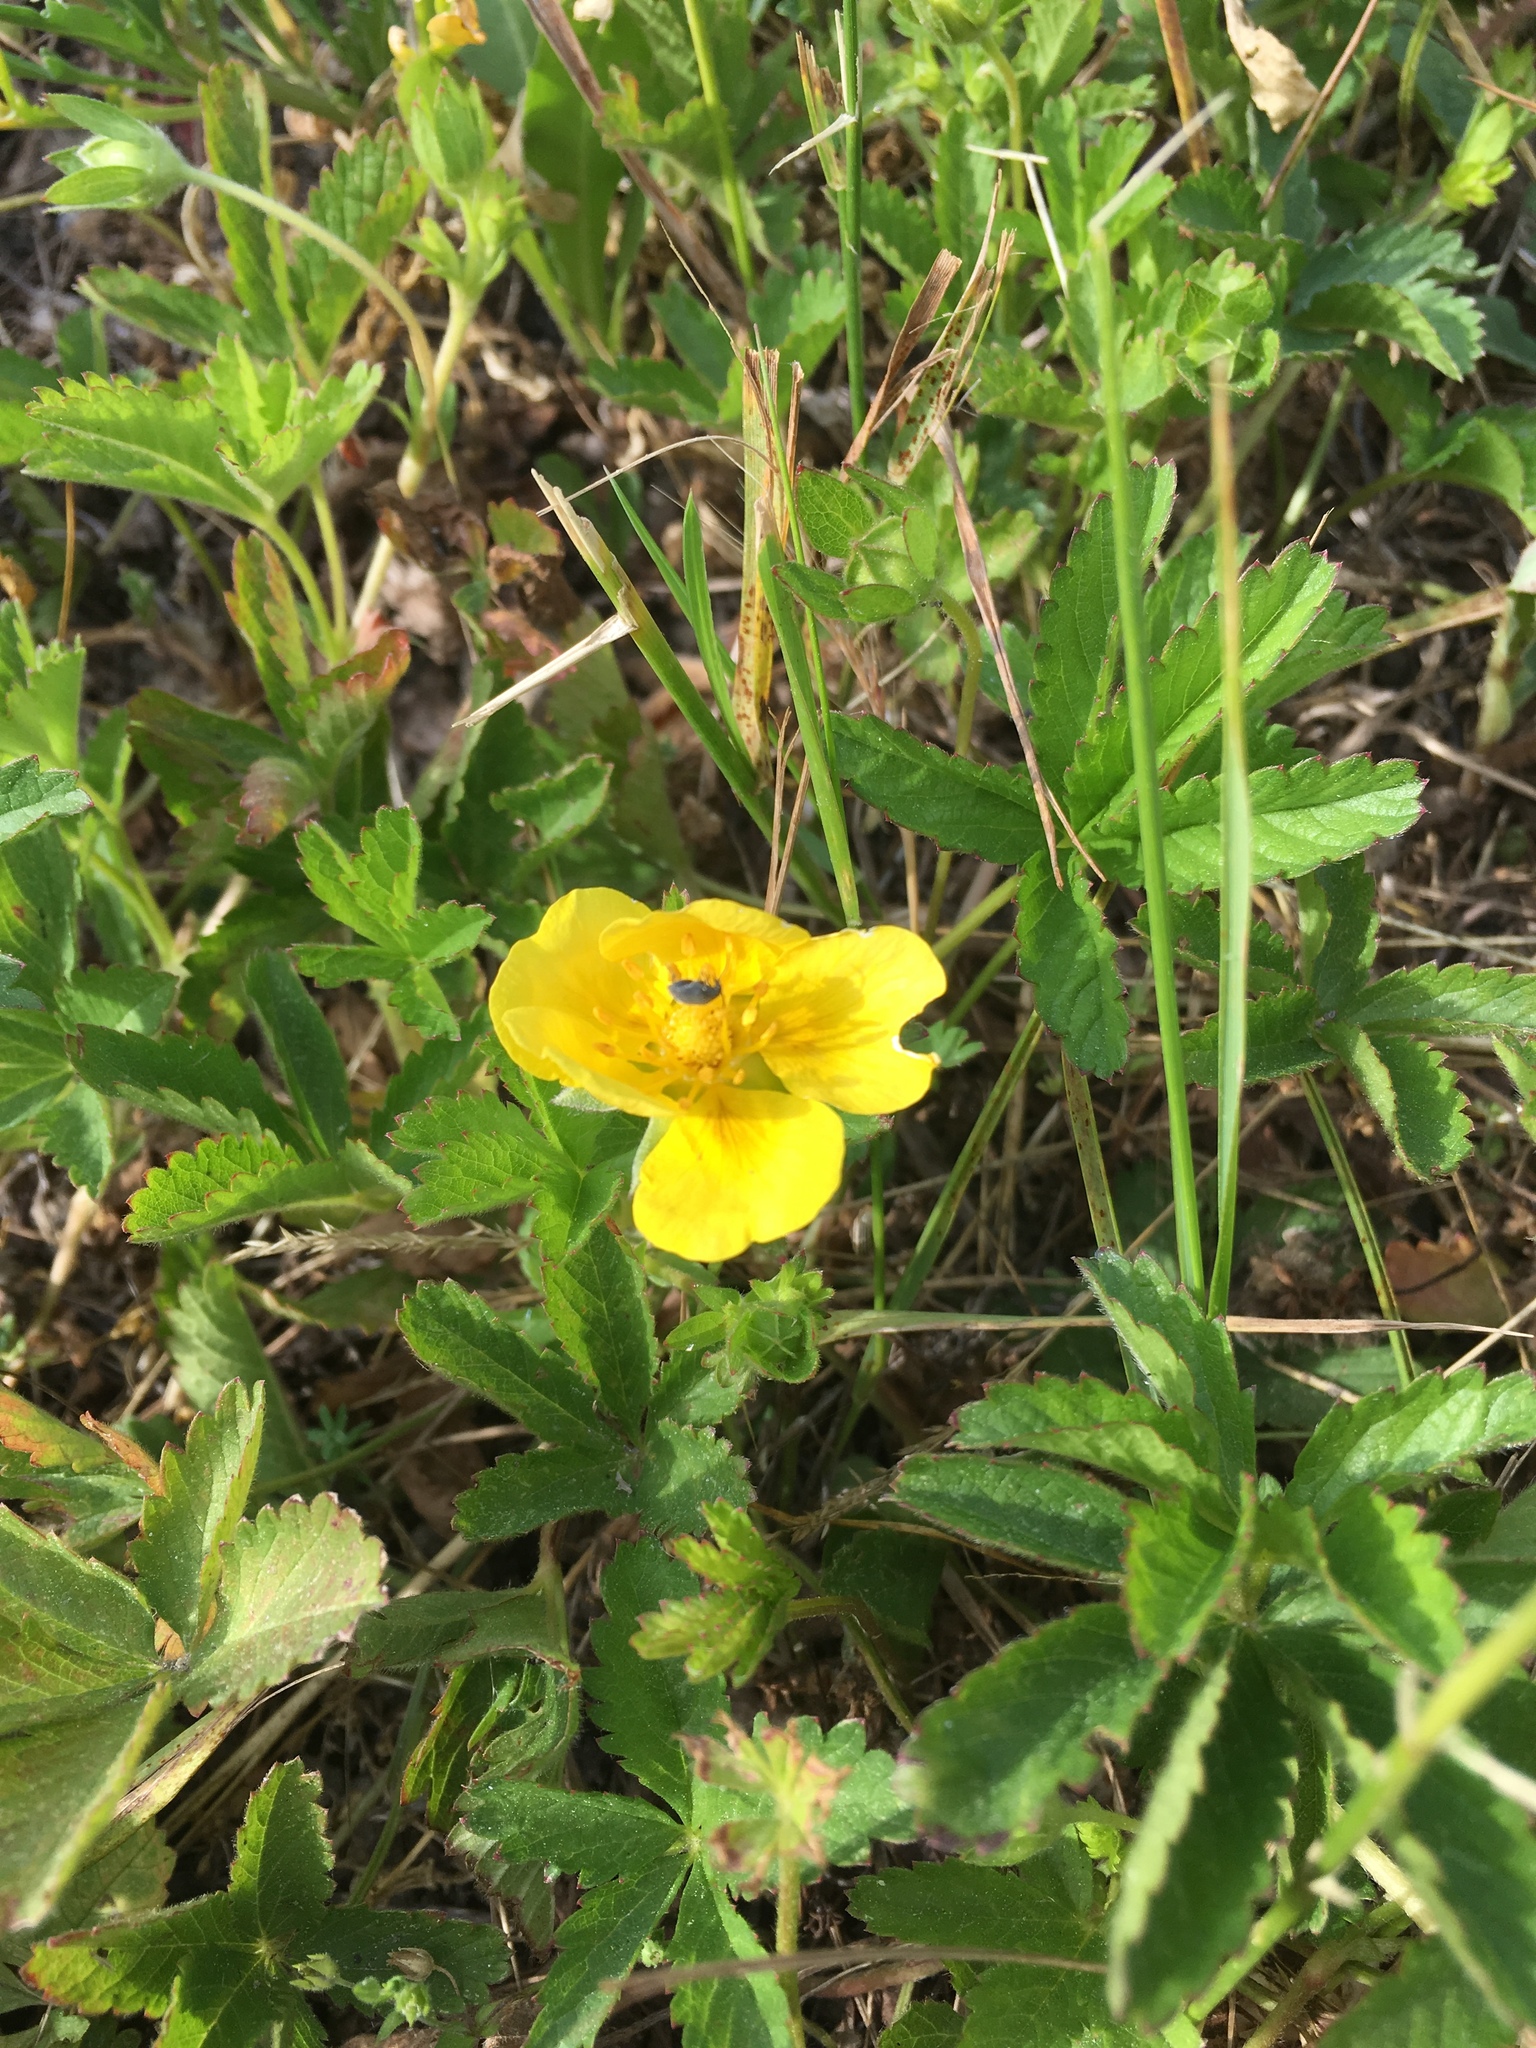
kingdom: Plantae
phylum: Tracheophyta
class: Magnoliopsida
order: Rosales
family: Rosaceae
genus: Potentilla
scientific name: Potentilla reptans
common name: Creeping cinquefoil
